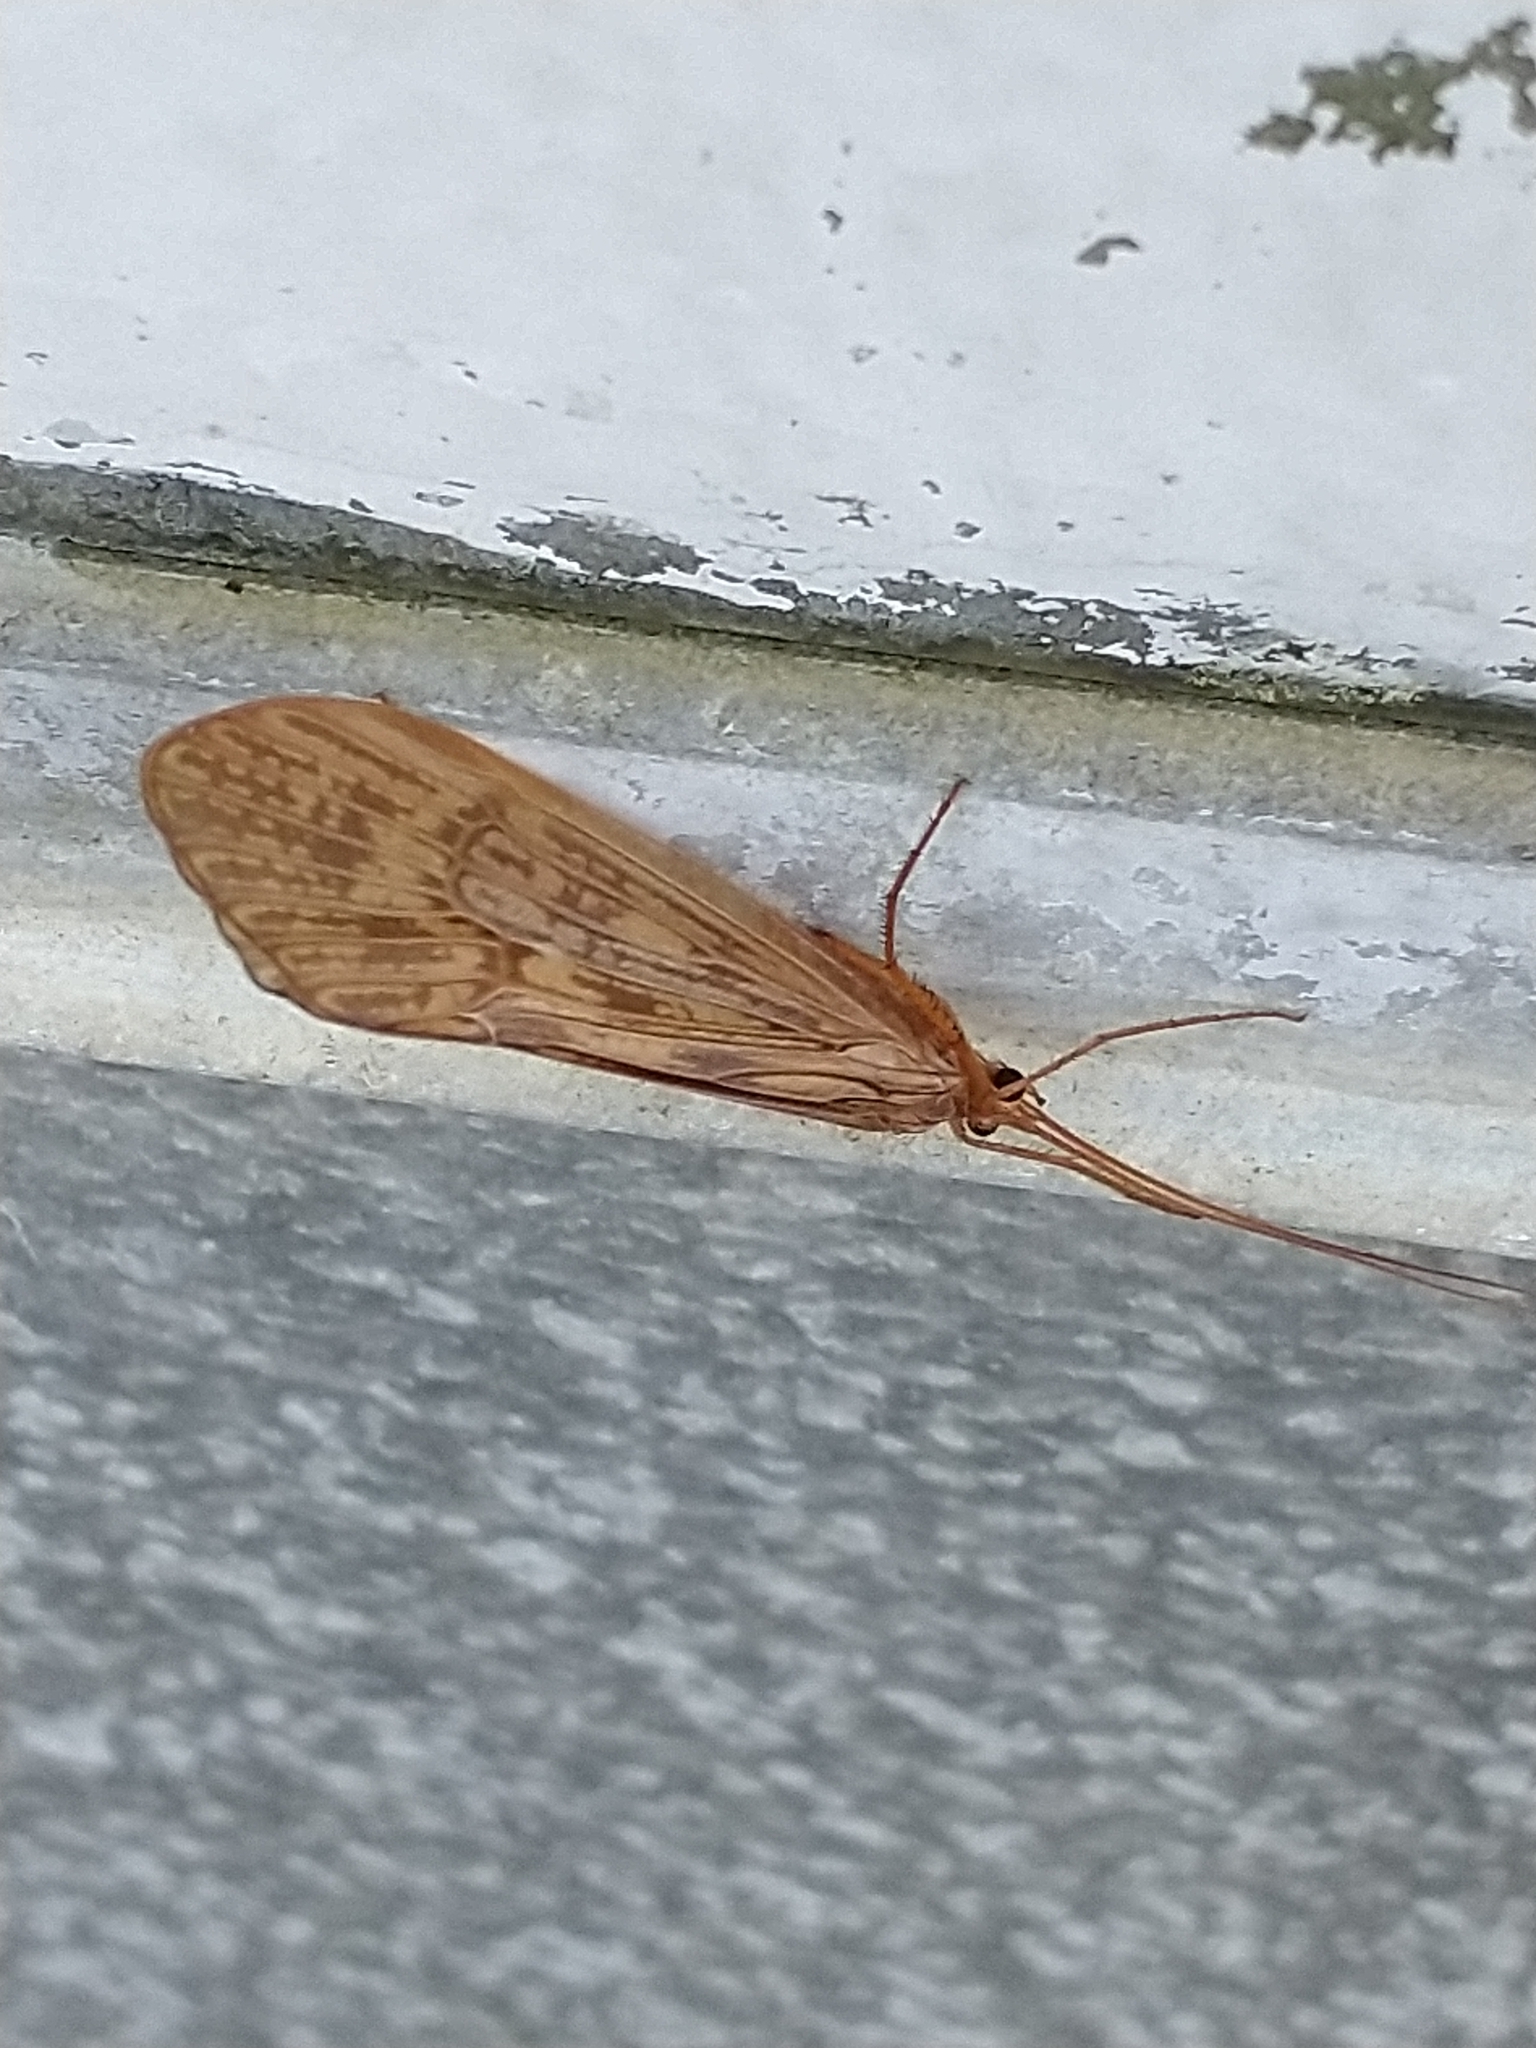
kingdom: Animalia
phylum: Arthropoda
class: Insecta
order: Trichoptera
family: Limnephilidae
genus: Halesus
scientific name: Halesus digitatus
